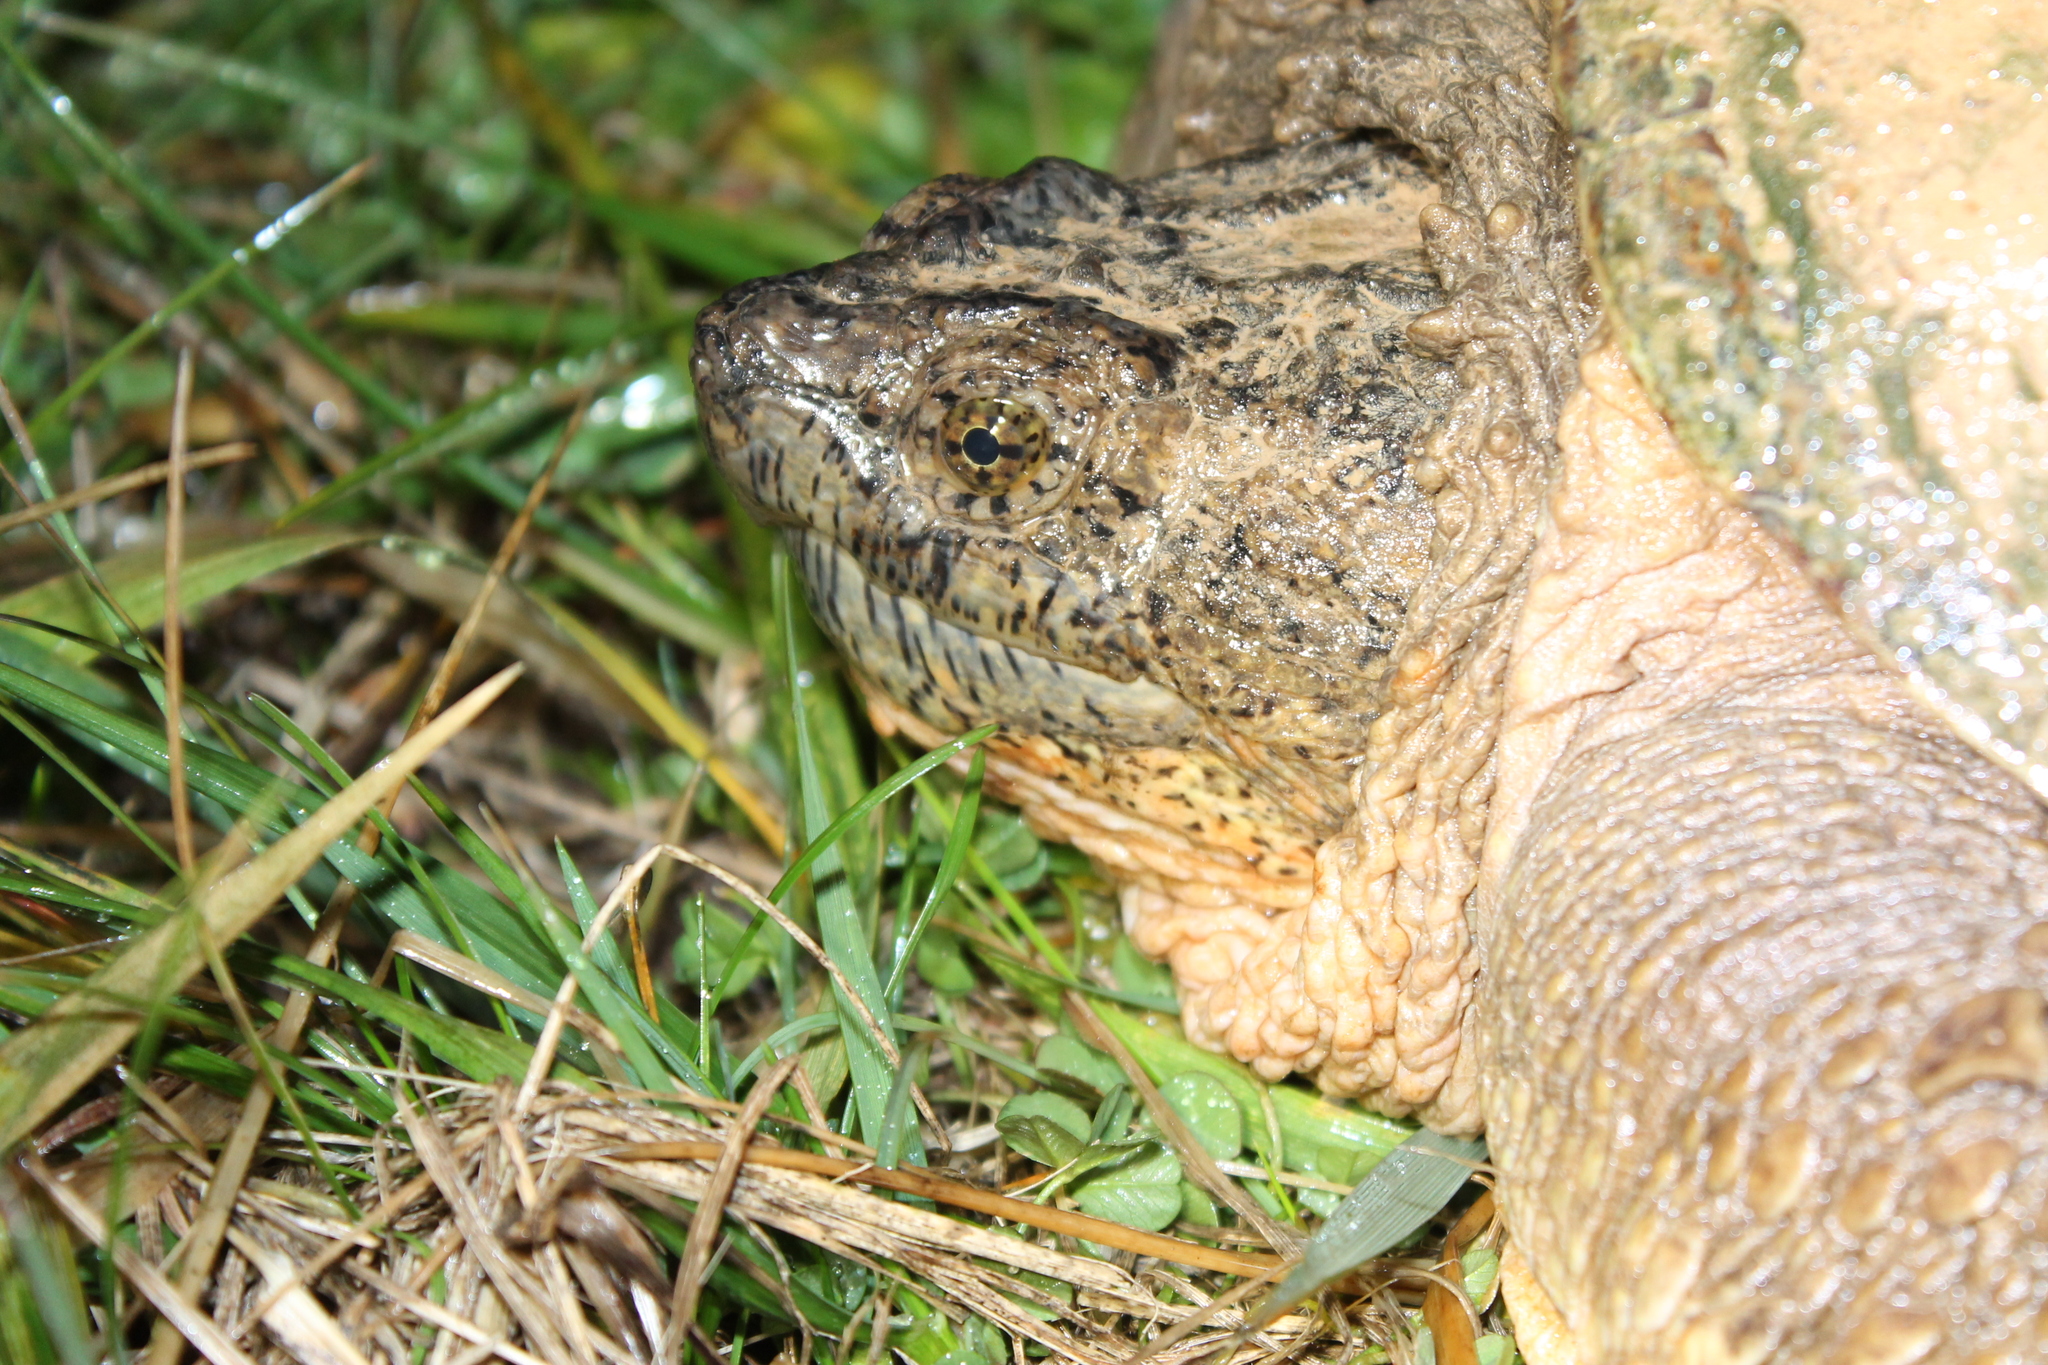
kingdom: Animalia
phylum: Chordata
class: Testudines
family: Chelydridae
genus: Chelydra
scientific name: Chelydra serpentina
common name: Common snapping turtle
